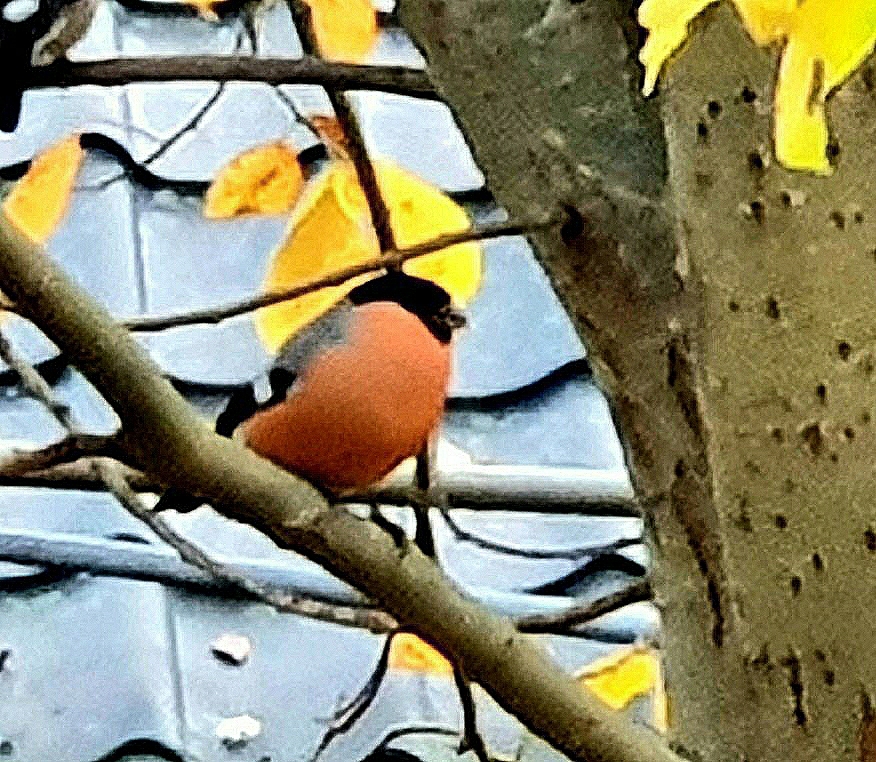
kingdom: Animalia
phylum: Chordata
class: Aves
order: Passeriformes
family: Fringillidae
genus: Pyrrhula
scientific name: Pyrrhula pyrrhula
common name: Eurasian bullfinch
